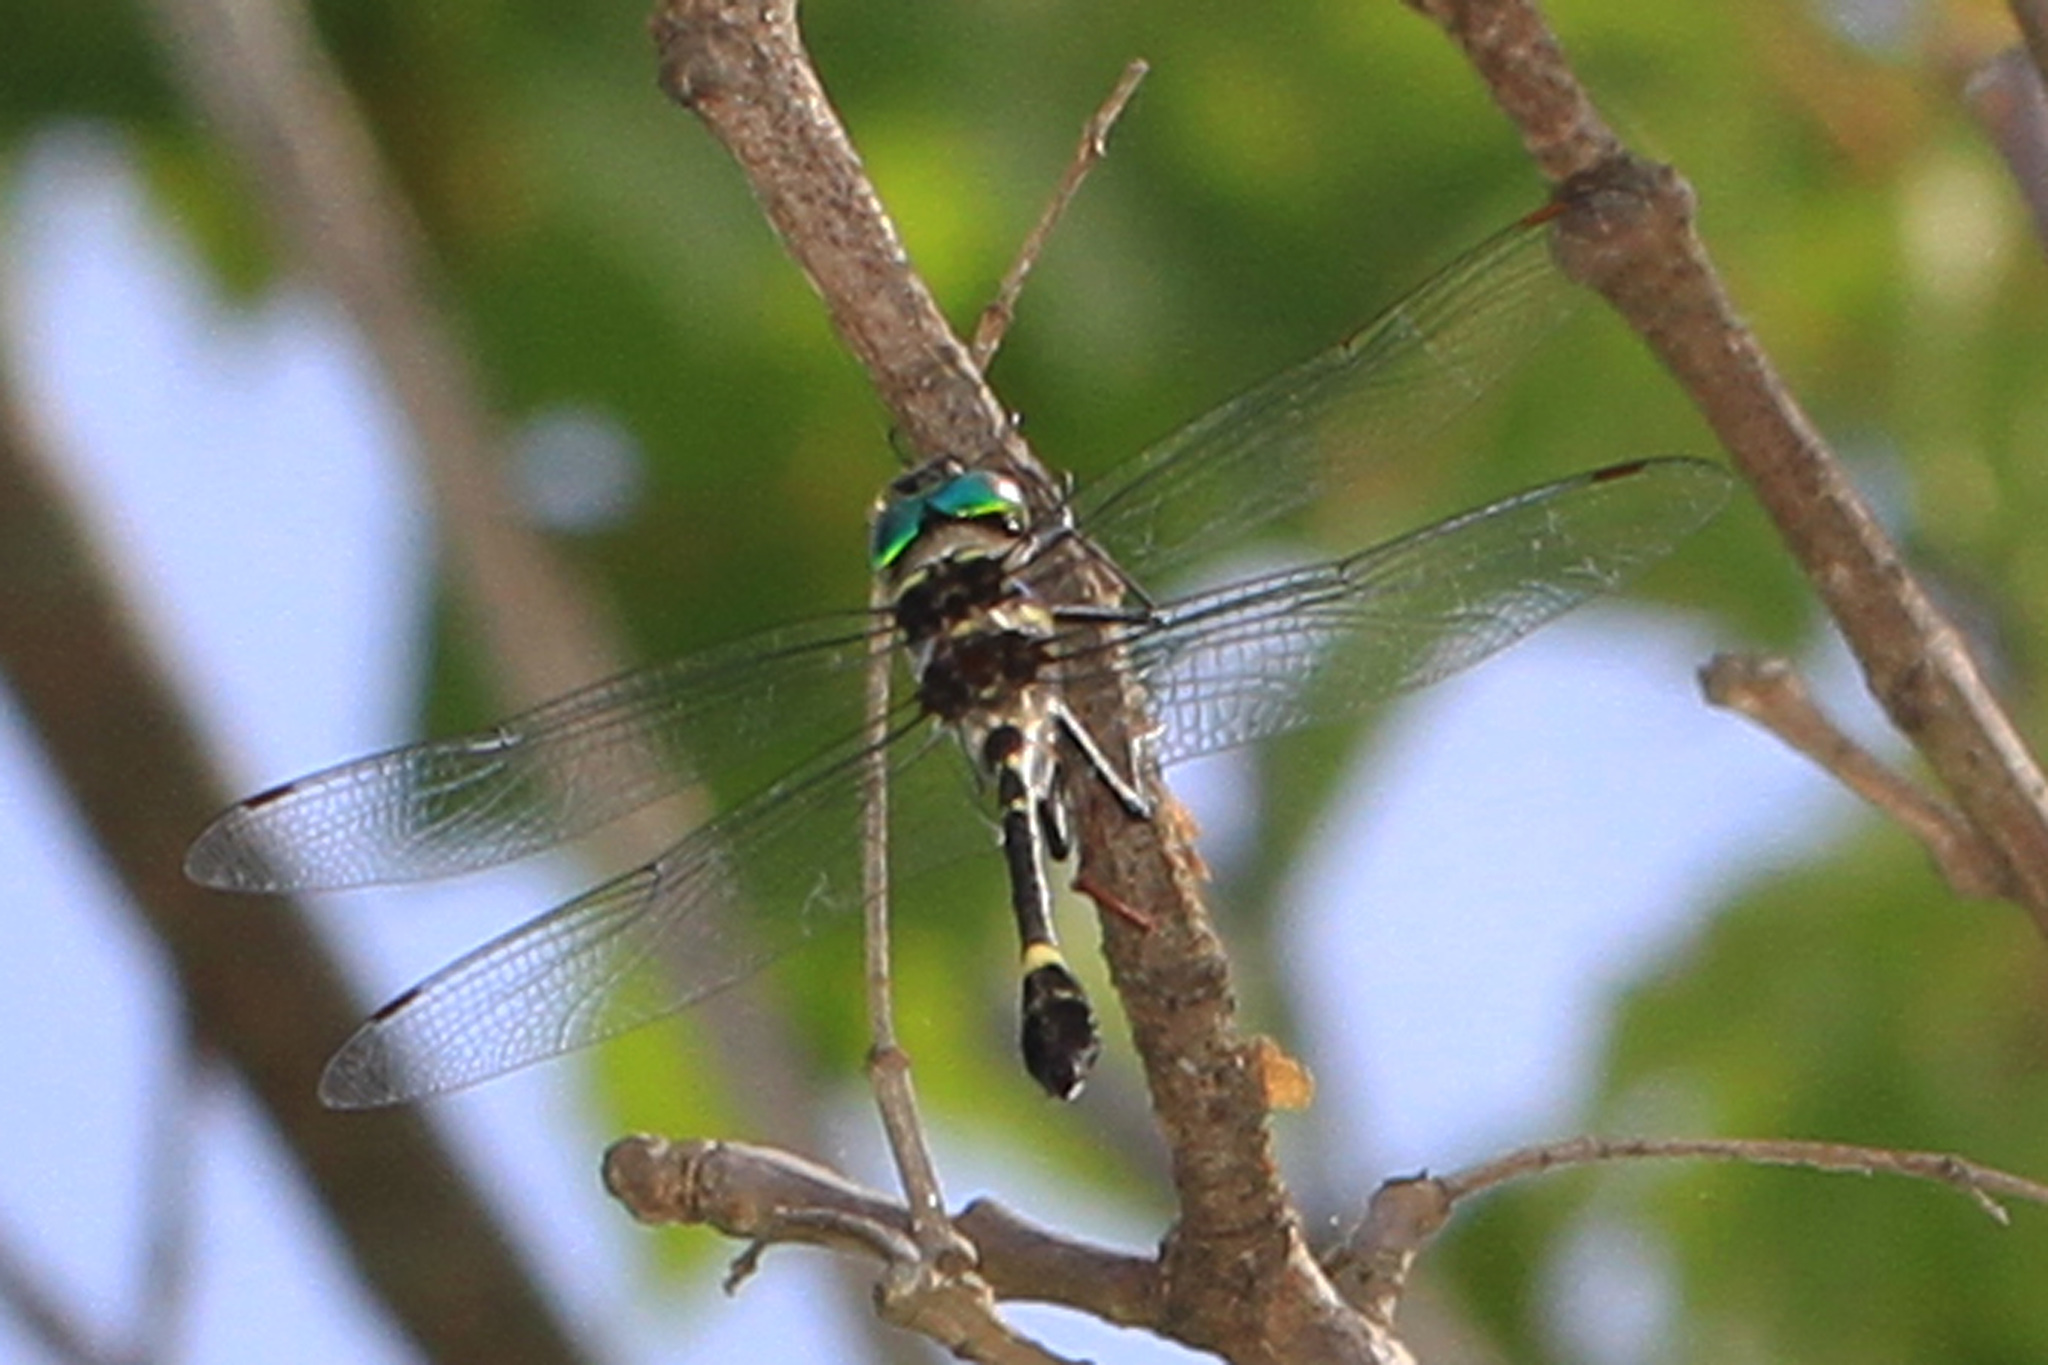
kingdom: Animalia
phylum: Arthropoda
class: Insecta
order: Odonata
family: Macromiidae
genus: Macromia
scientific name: Macromia illinoiensis
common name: Swift river cruiser
